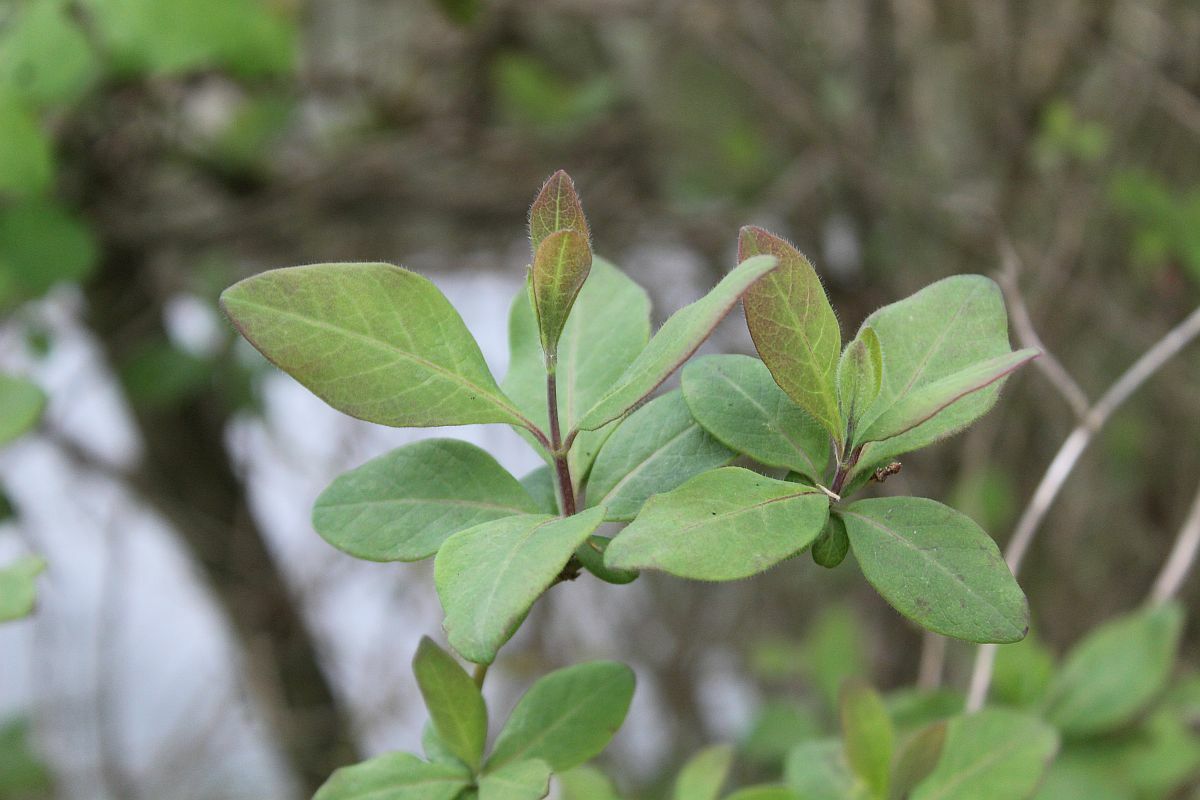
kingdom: Plantae
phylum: Tracheophyta
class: Magnoliopsida
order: Dipsacales
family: Caprifoliaceae
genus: Lonicera
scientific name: Lonicera periclymenum
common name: European honeysuckle
